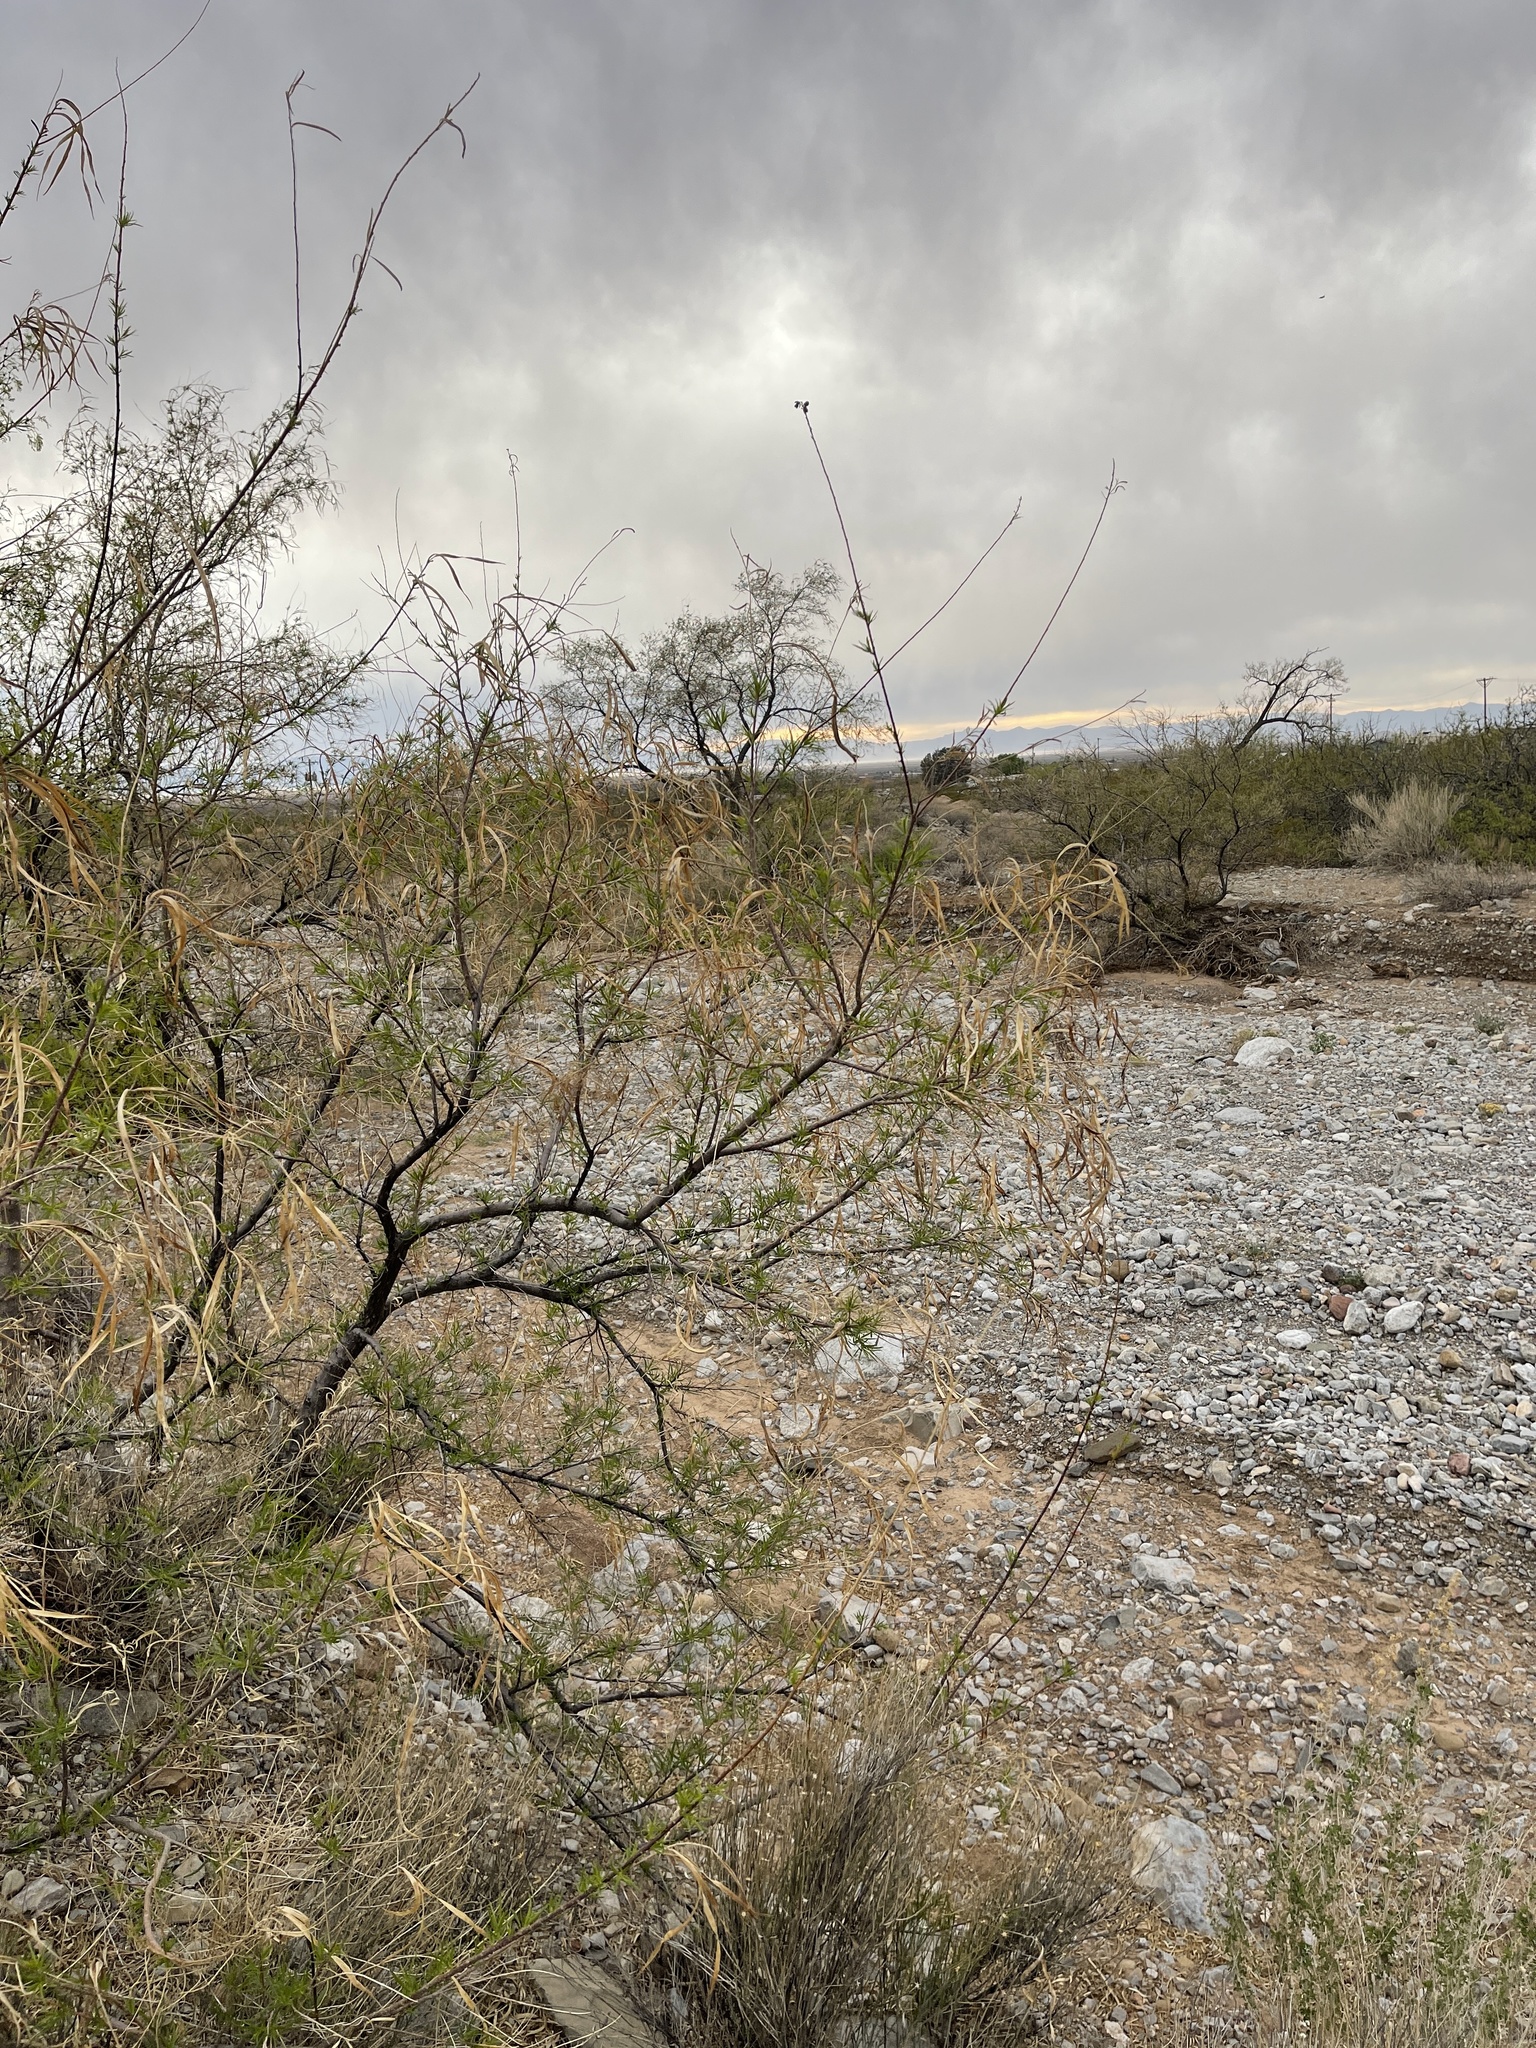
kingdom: Plantae
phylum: Tracheophyta
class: Magnoliopsida
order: Lamiales
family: Bignoniaceae
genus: Chilopsis
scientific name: Chilopsis linearis
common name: Desert-willow
